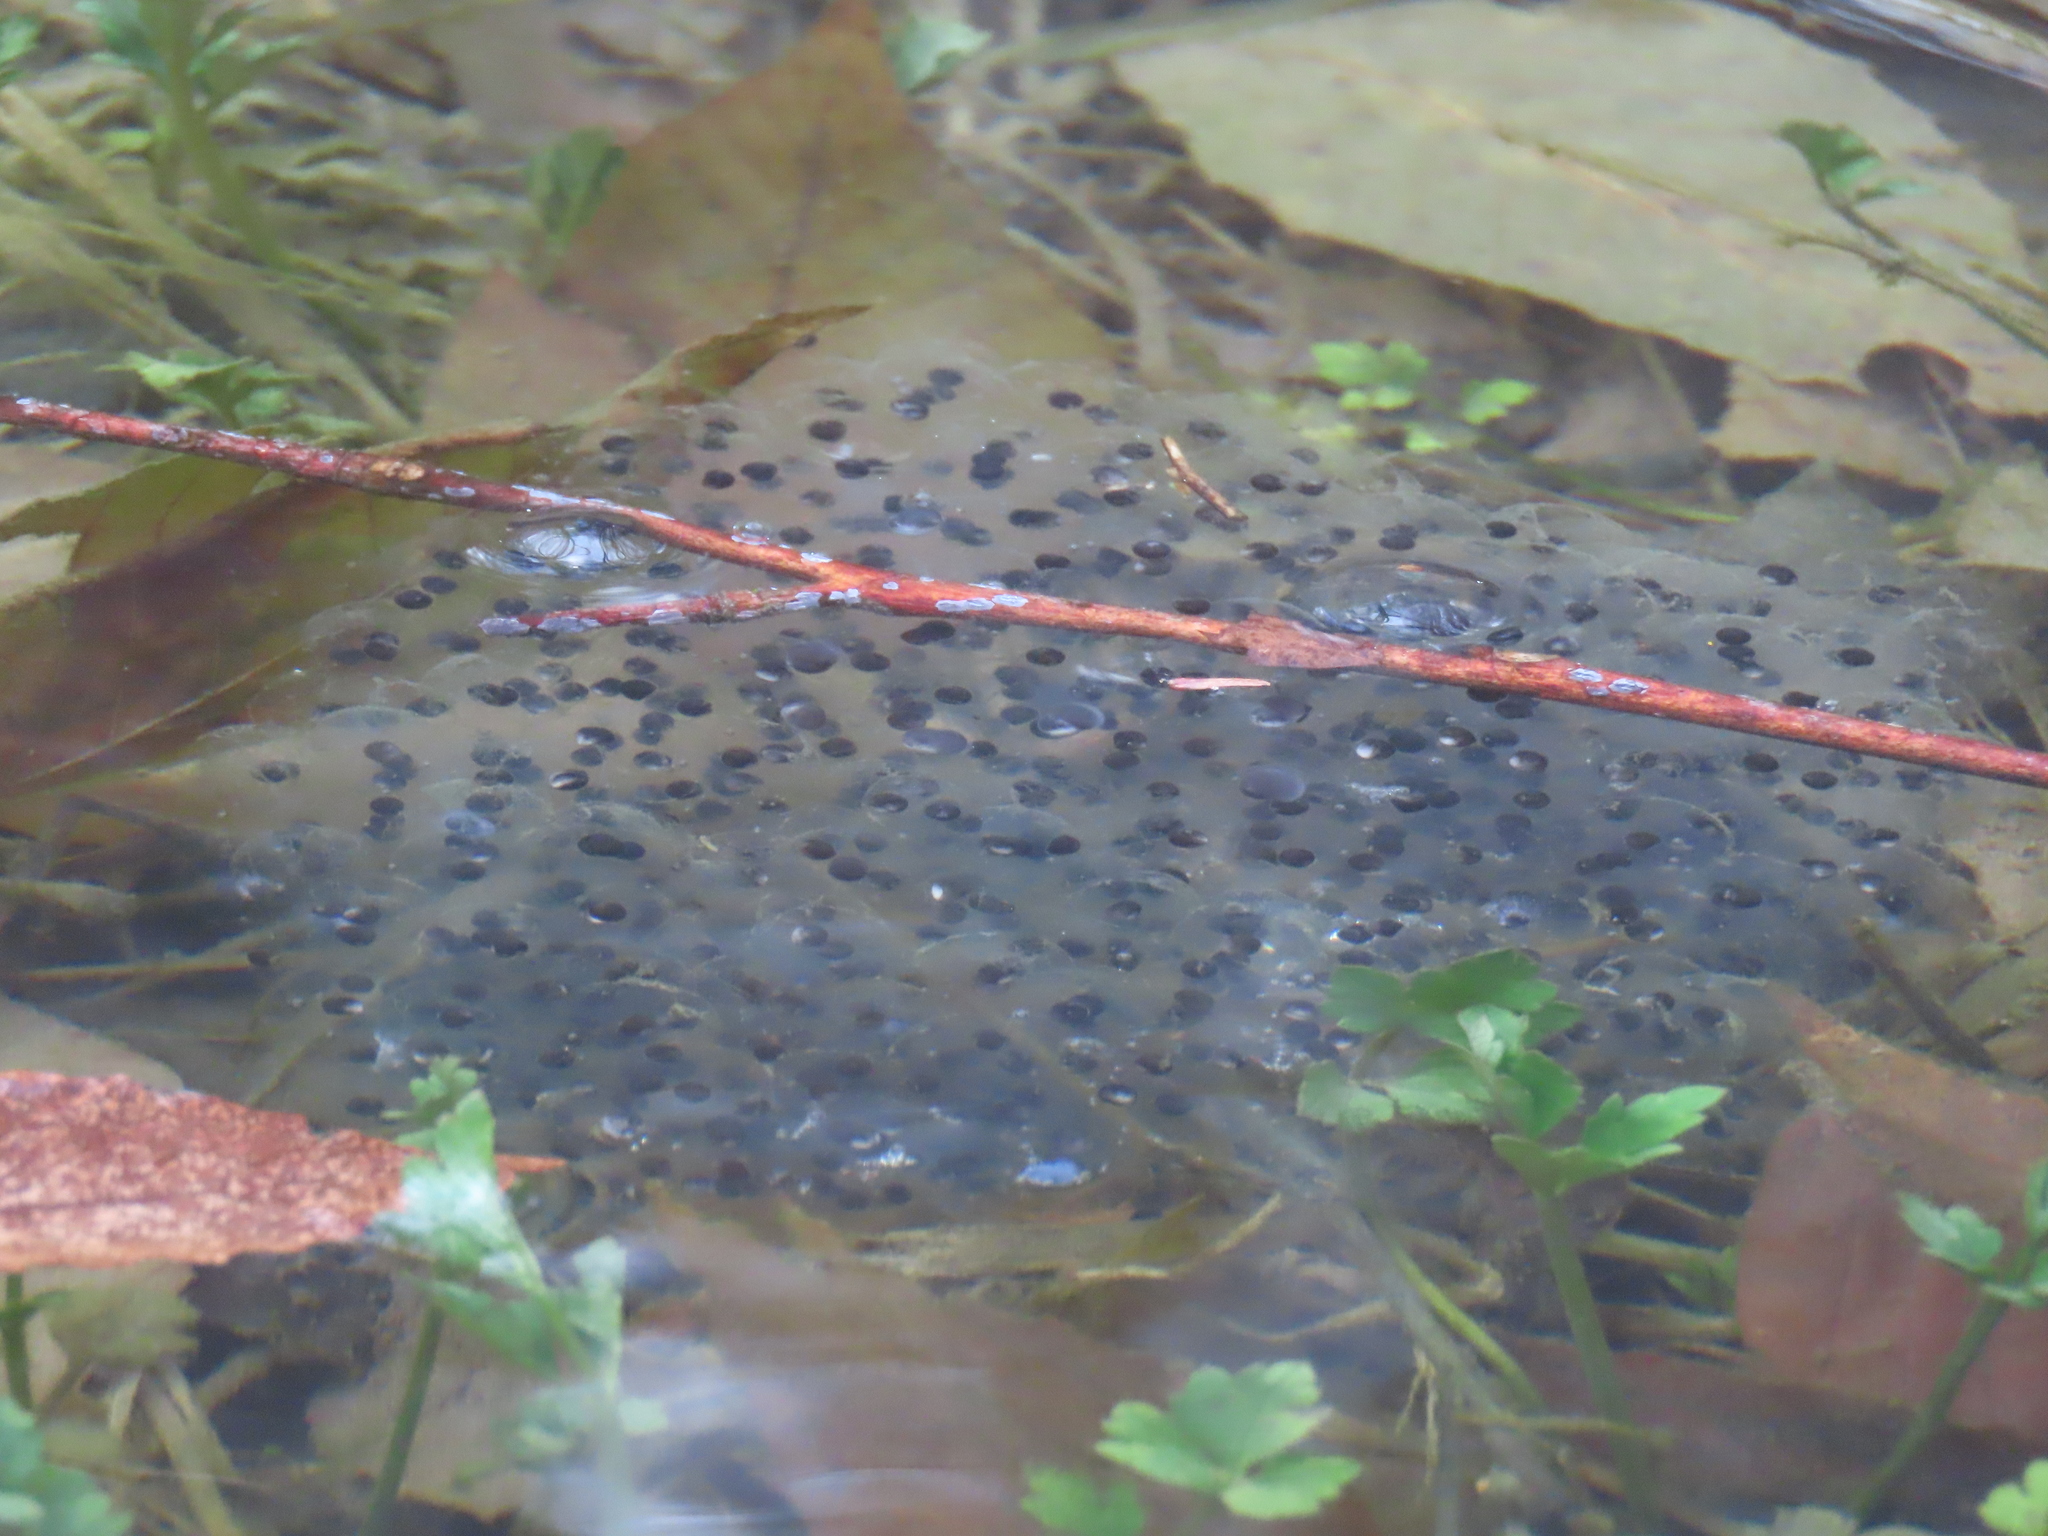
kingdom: Animalia
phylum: Chordata
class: Amphibia
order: Anura
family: Ranidae
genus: Lithobates
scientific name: Lithobates sylvaticus
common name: Wood frog
